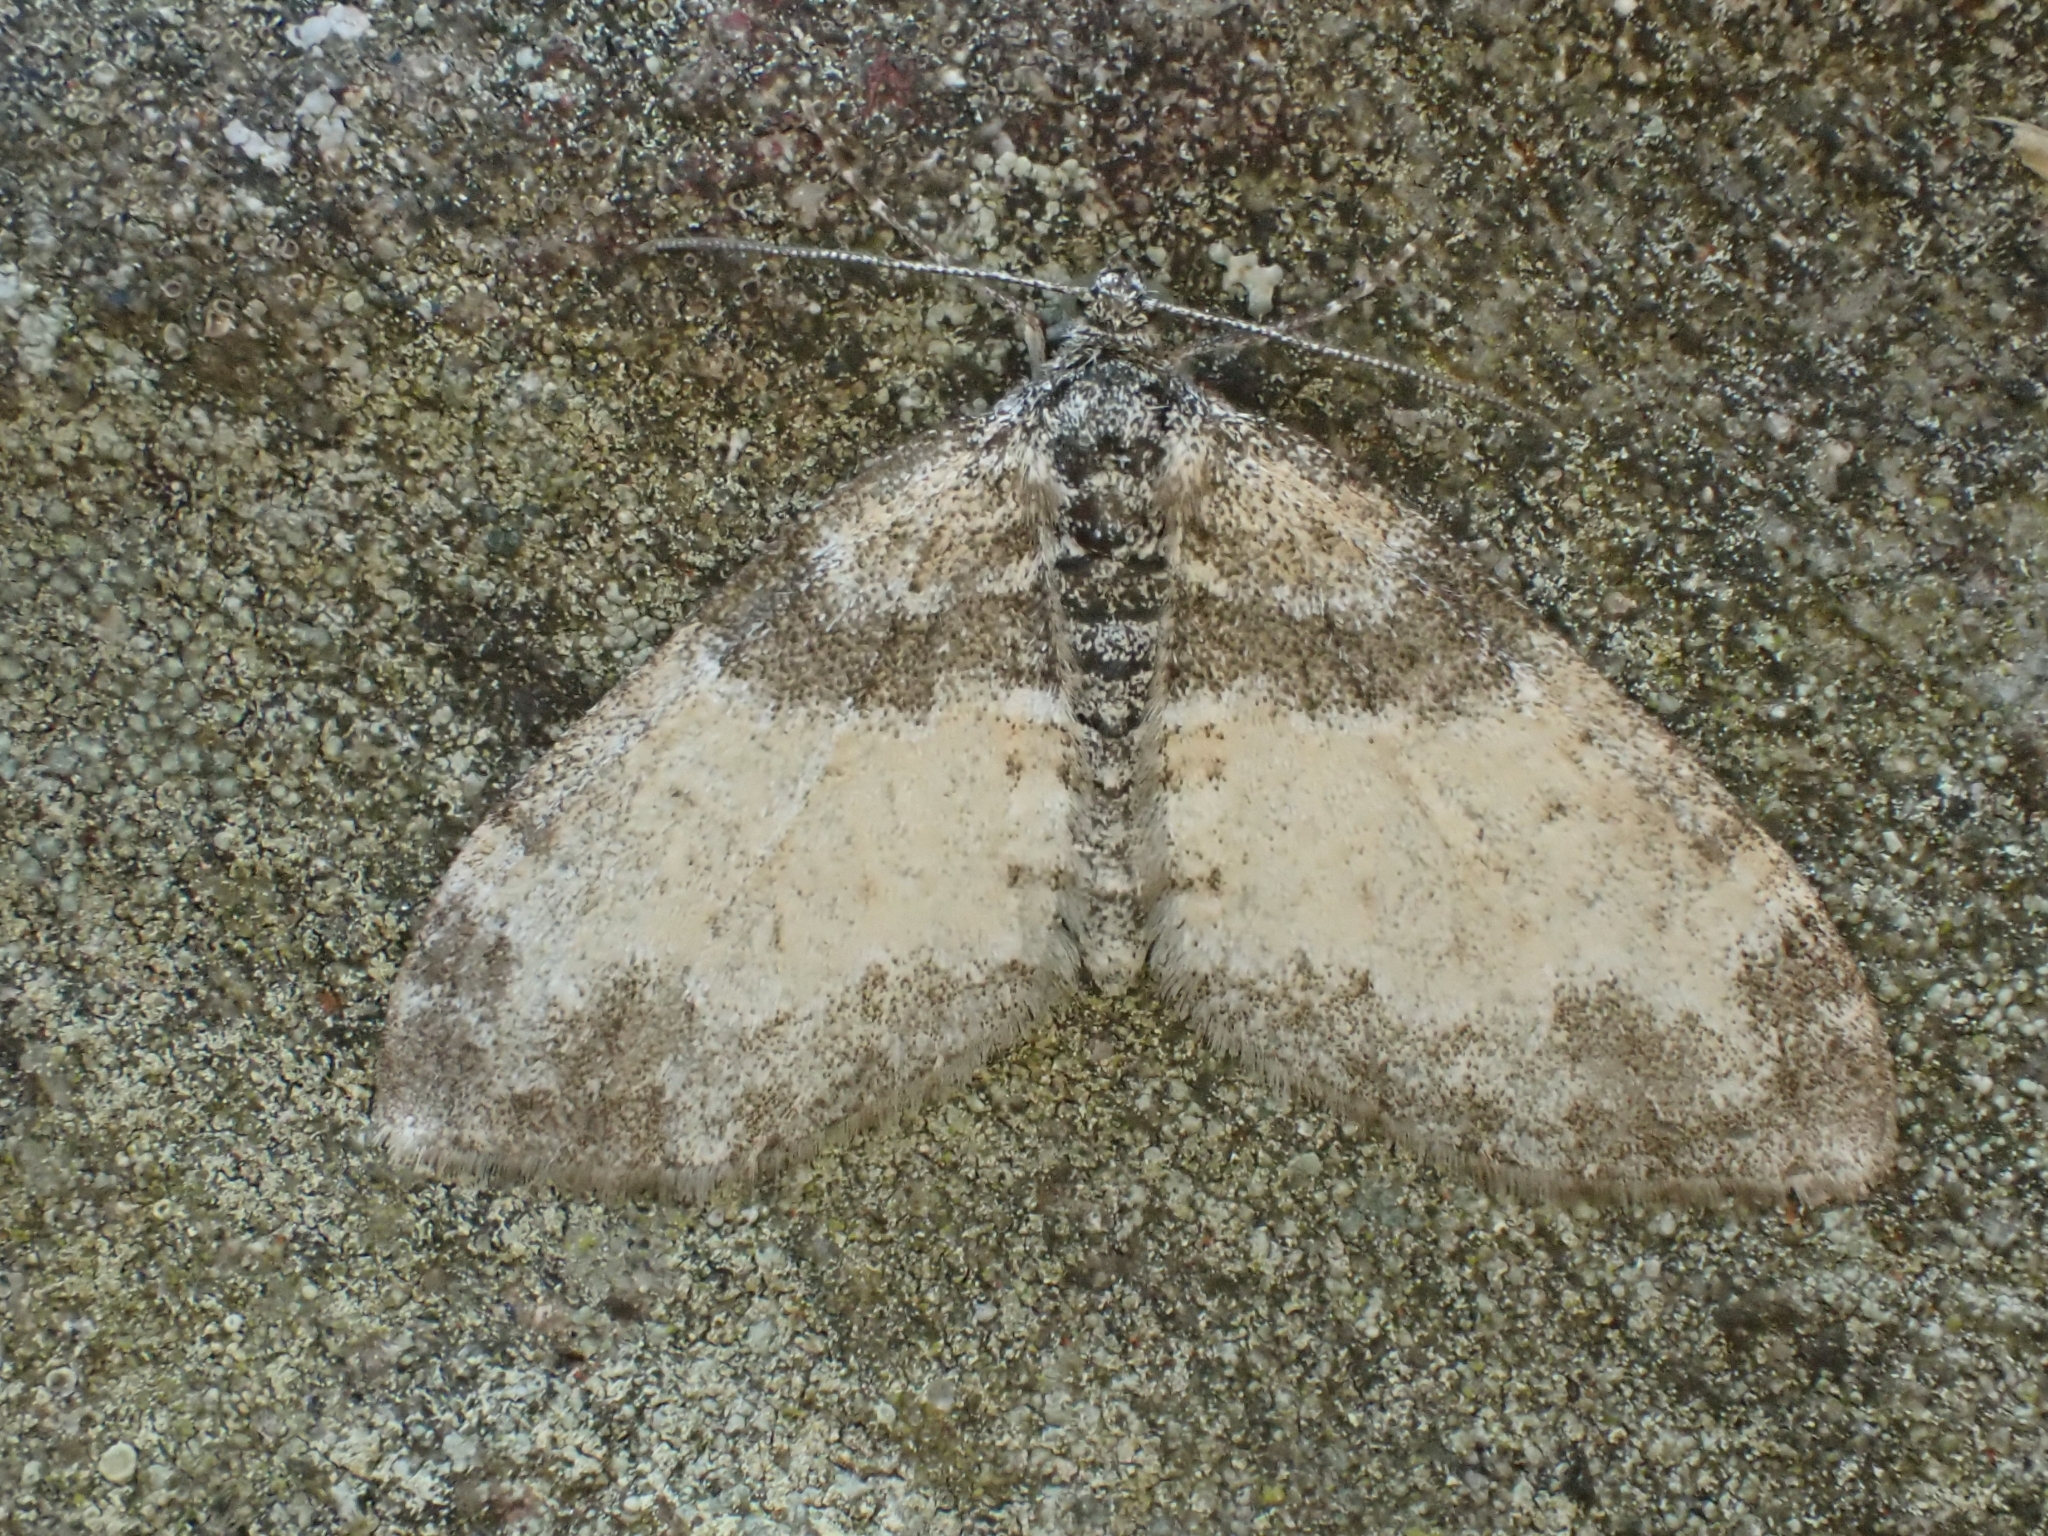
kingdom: Animalia
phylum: Arthropoda
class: Insecta
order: Lepidoptera
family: Geometridae
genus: Lobophora
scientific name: Lobophora halterata
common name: Seraphim
